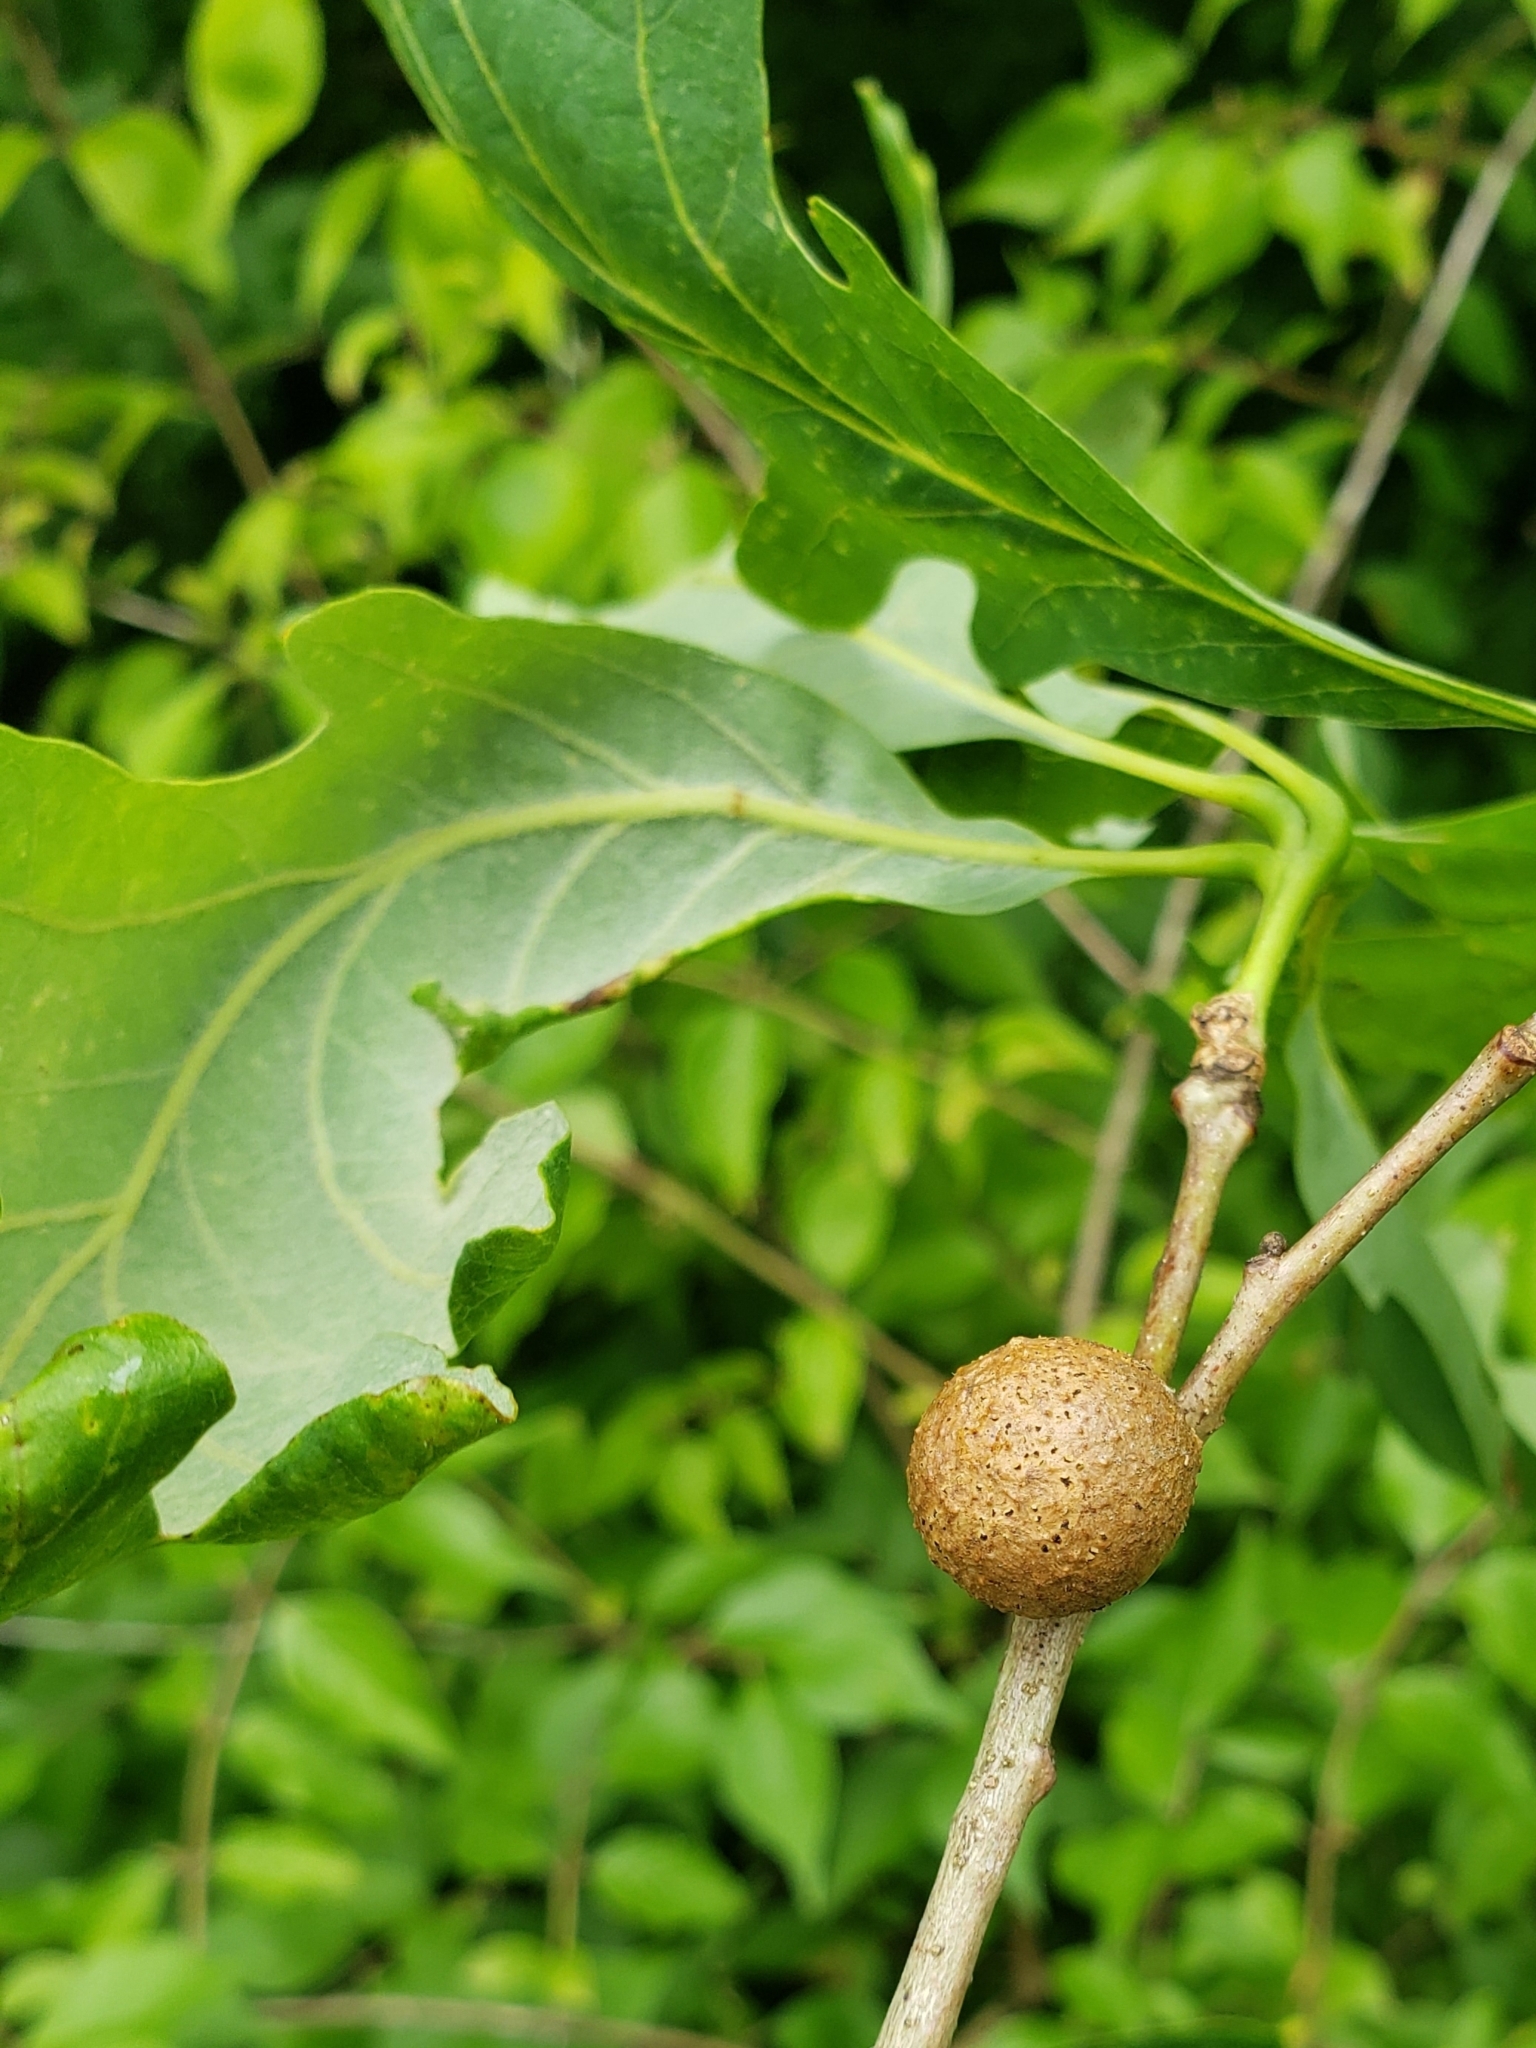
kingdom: Animalia
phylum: Arthropoda
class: Insecta
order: Hymenoptera
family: Cynipidae
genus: Disholcaspis
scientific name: Disholcaspis quercusglobulus
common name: Round bullet gall wasp
